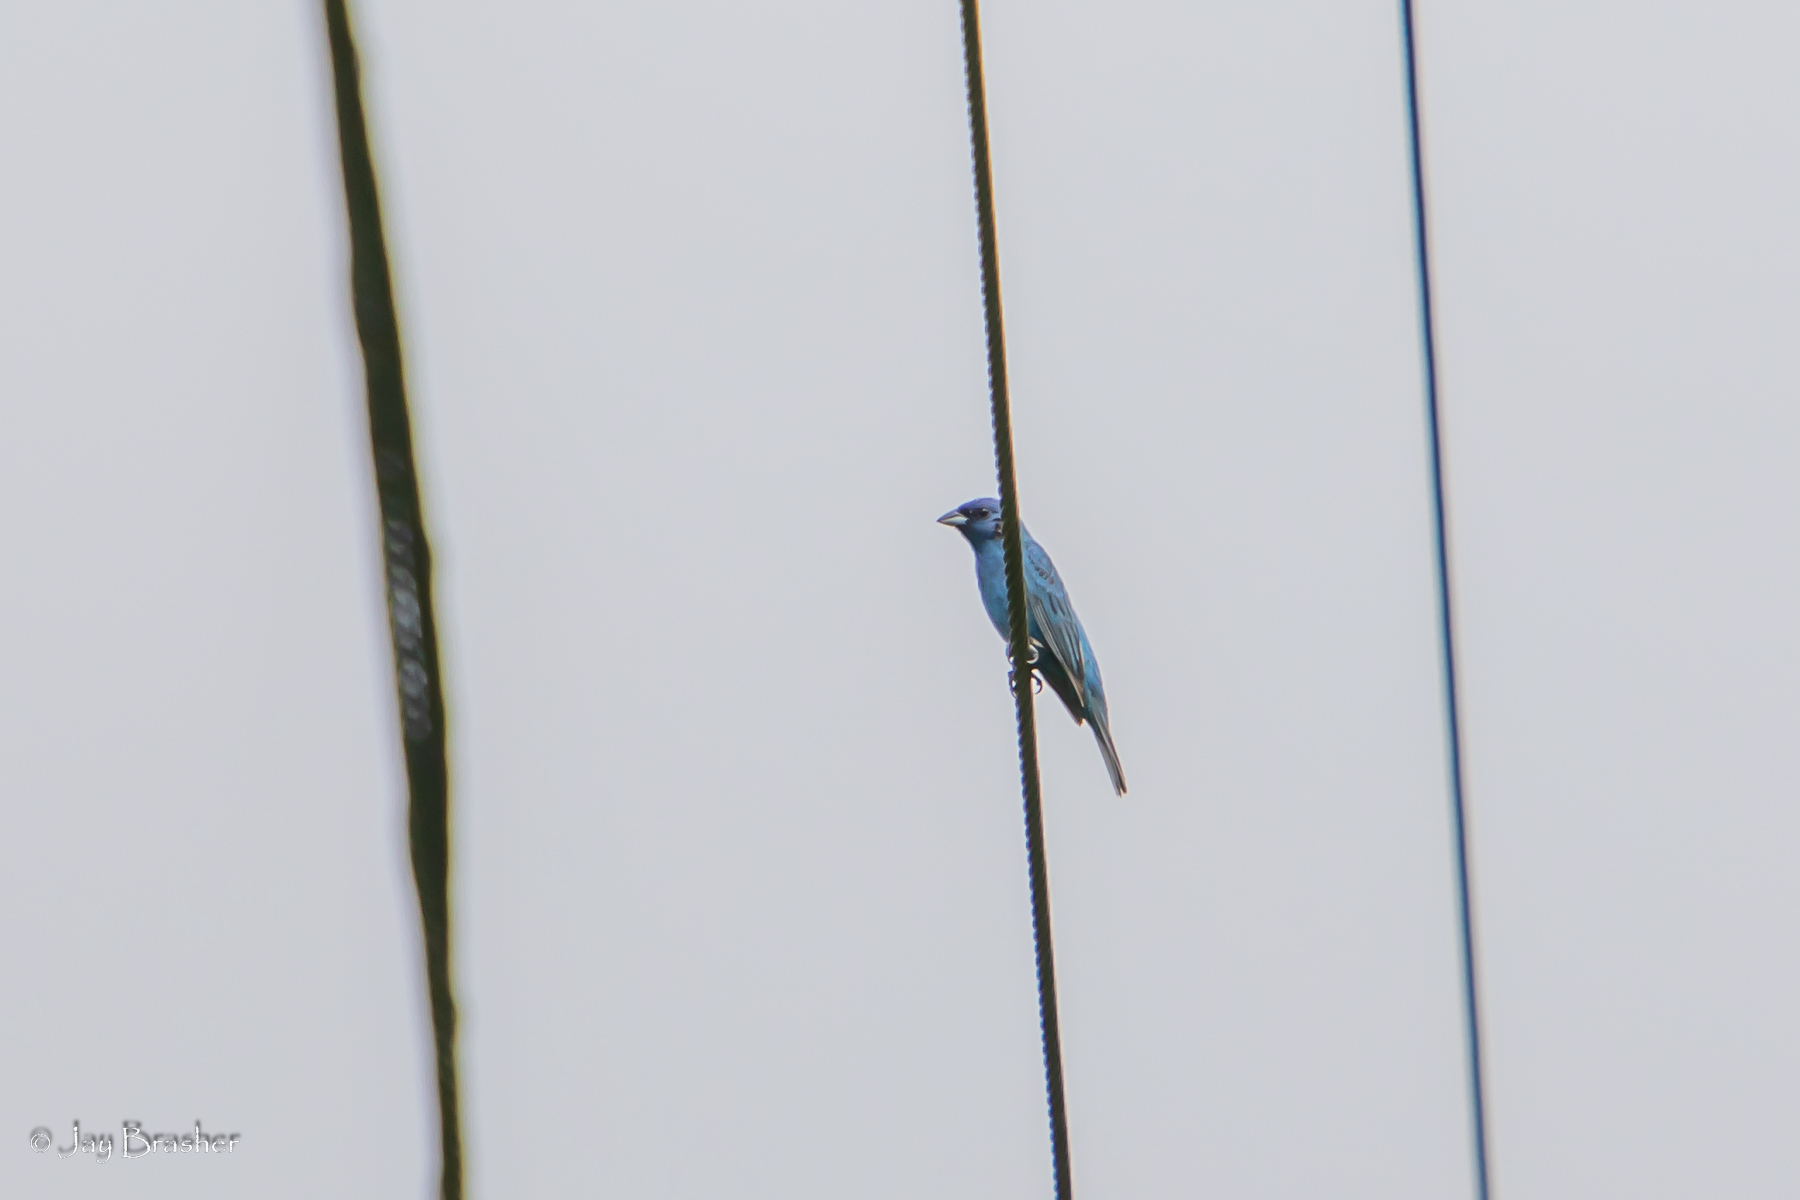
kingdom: Animalia
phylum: Chordata
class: Aves
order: Passeriformes
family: Cardinalidae
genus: Passerina
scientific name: Passerina cyanea
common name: Indigo bunting
